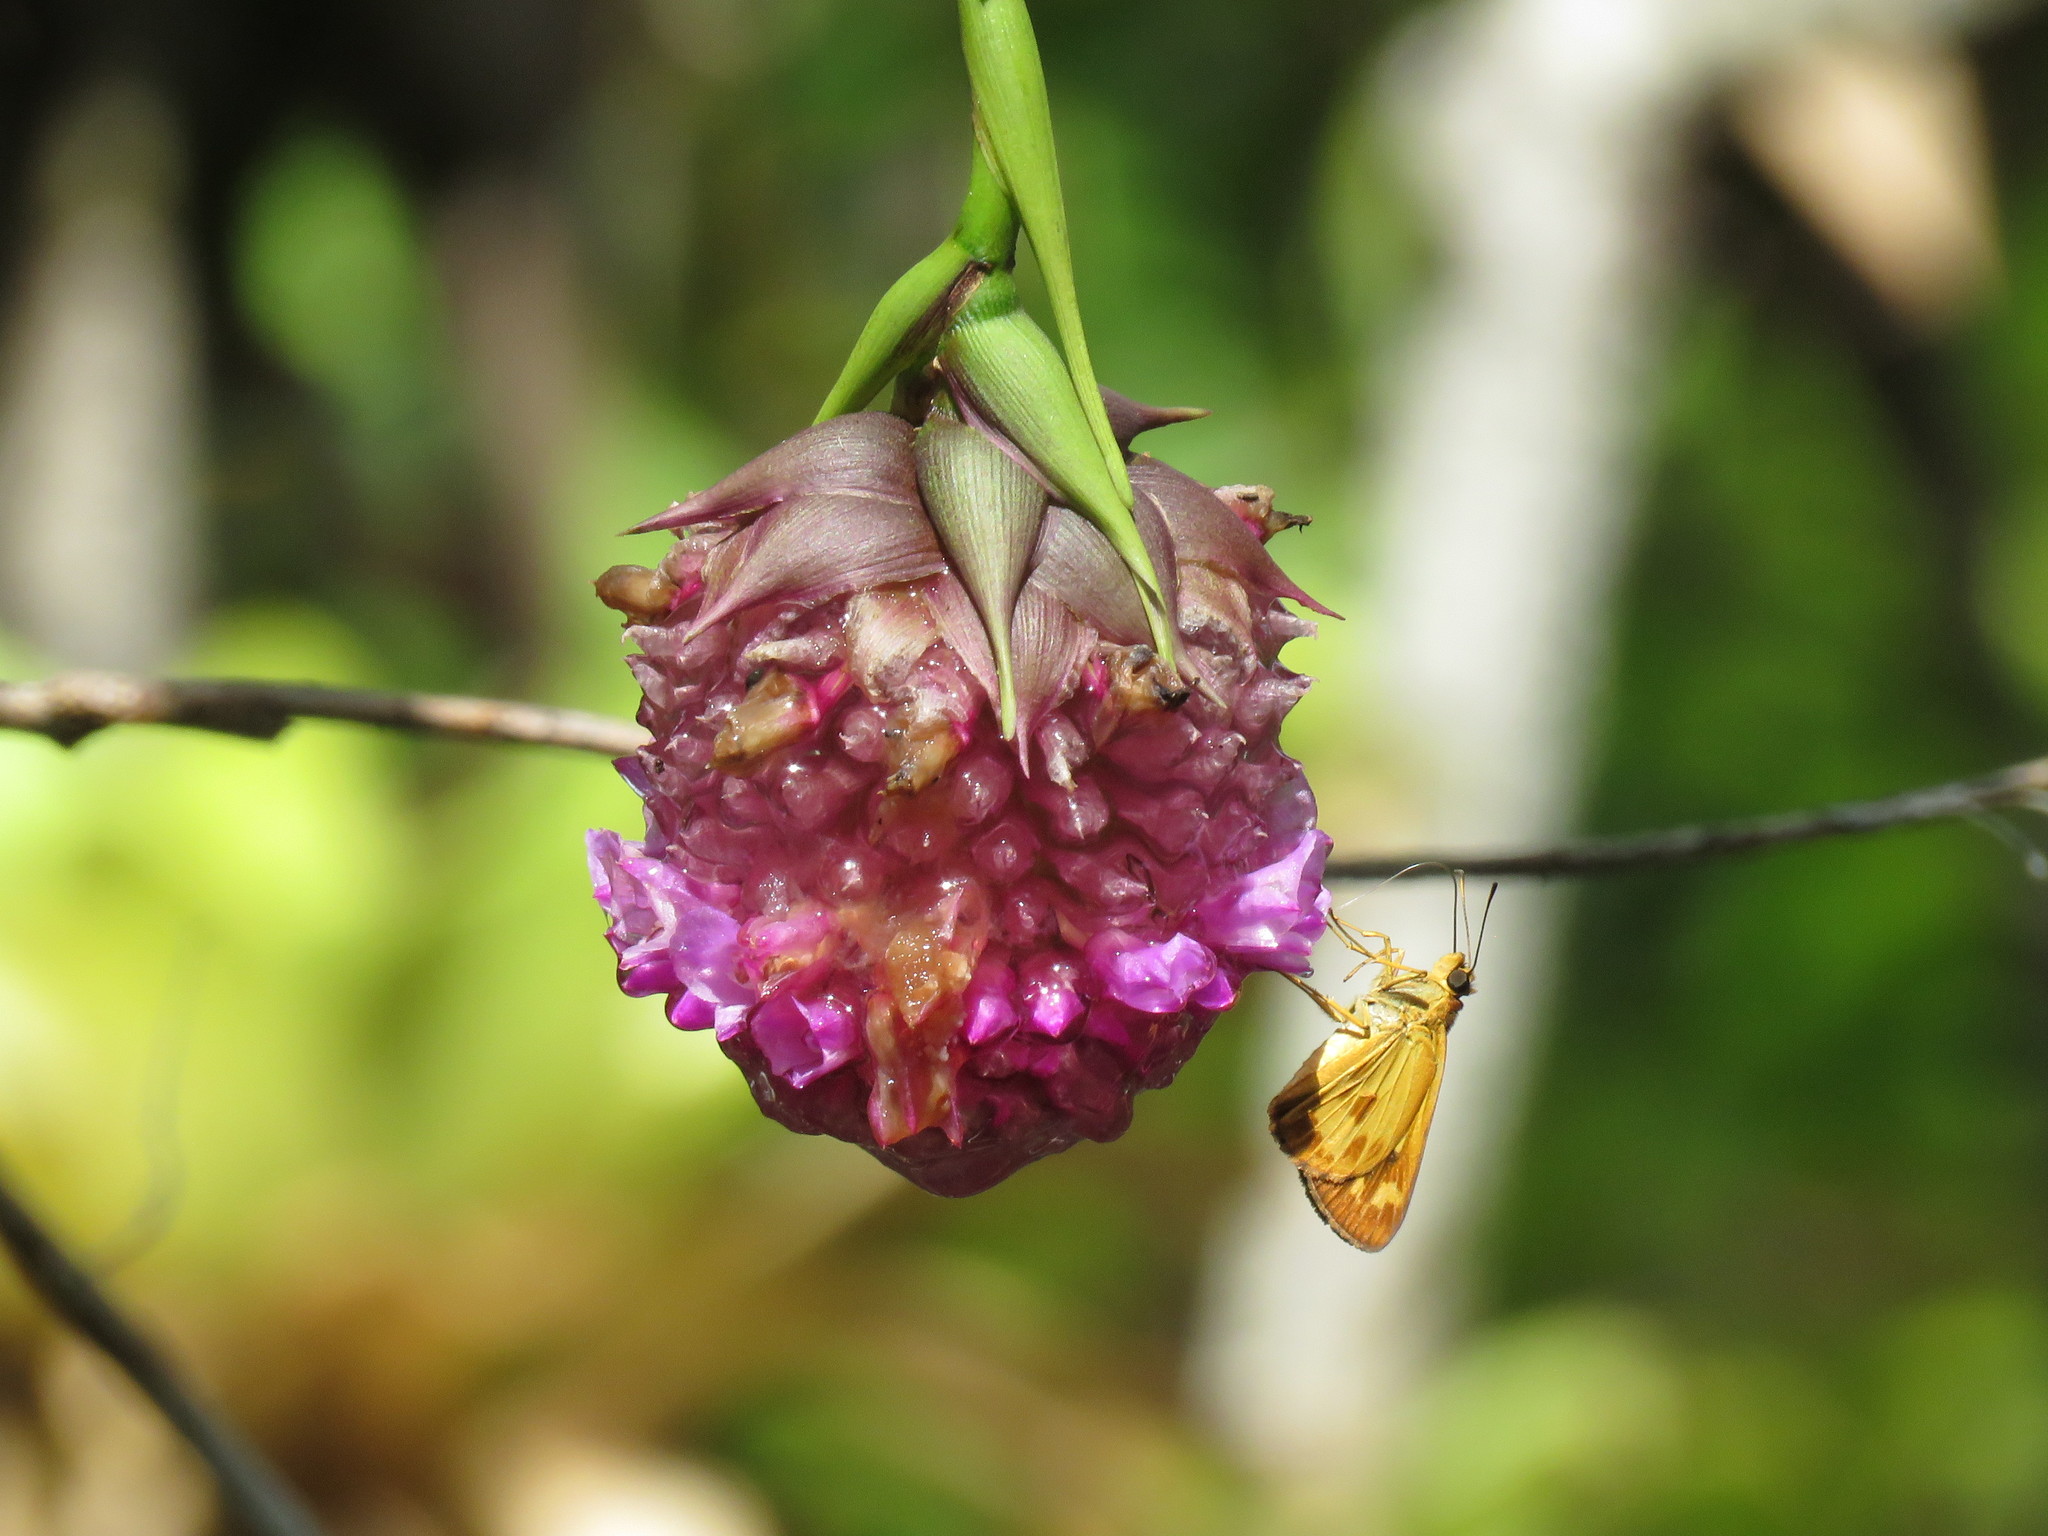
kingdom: Animalia
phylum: Arthropoda
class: Insecta
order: Lepidoptera
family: Hesperiidae
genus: Molo
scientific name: Molo mango
